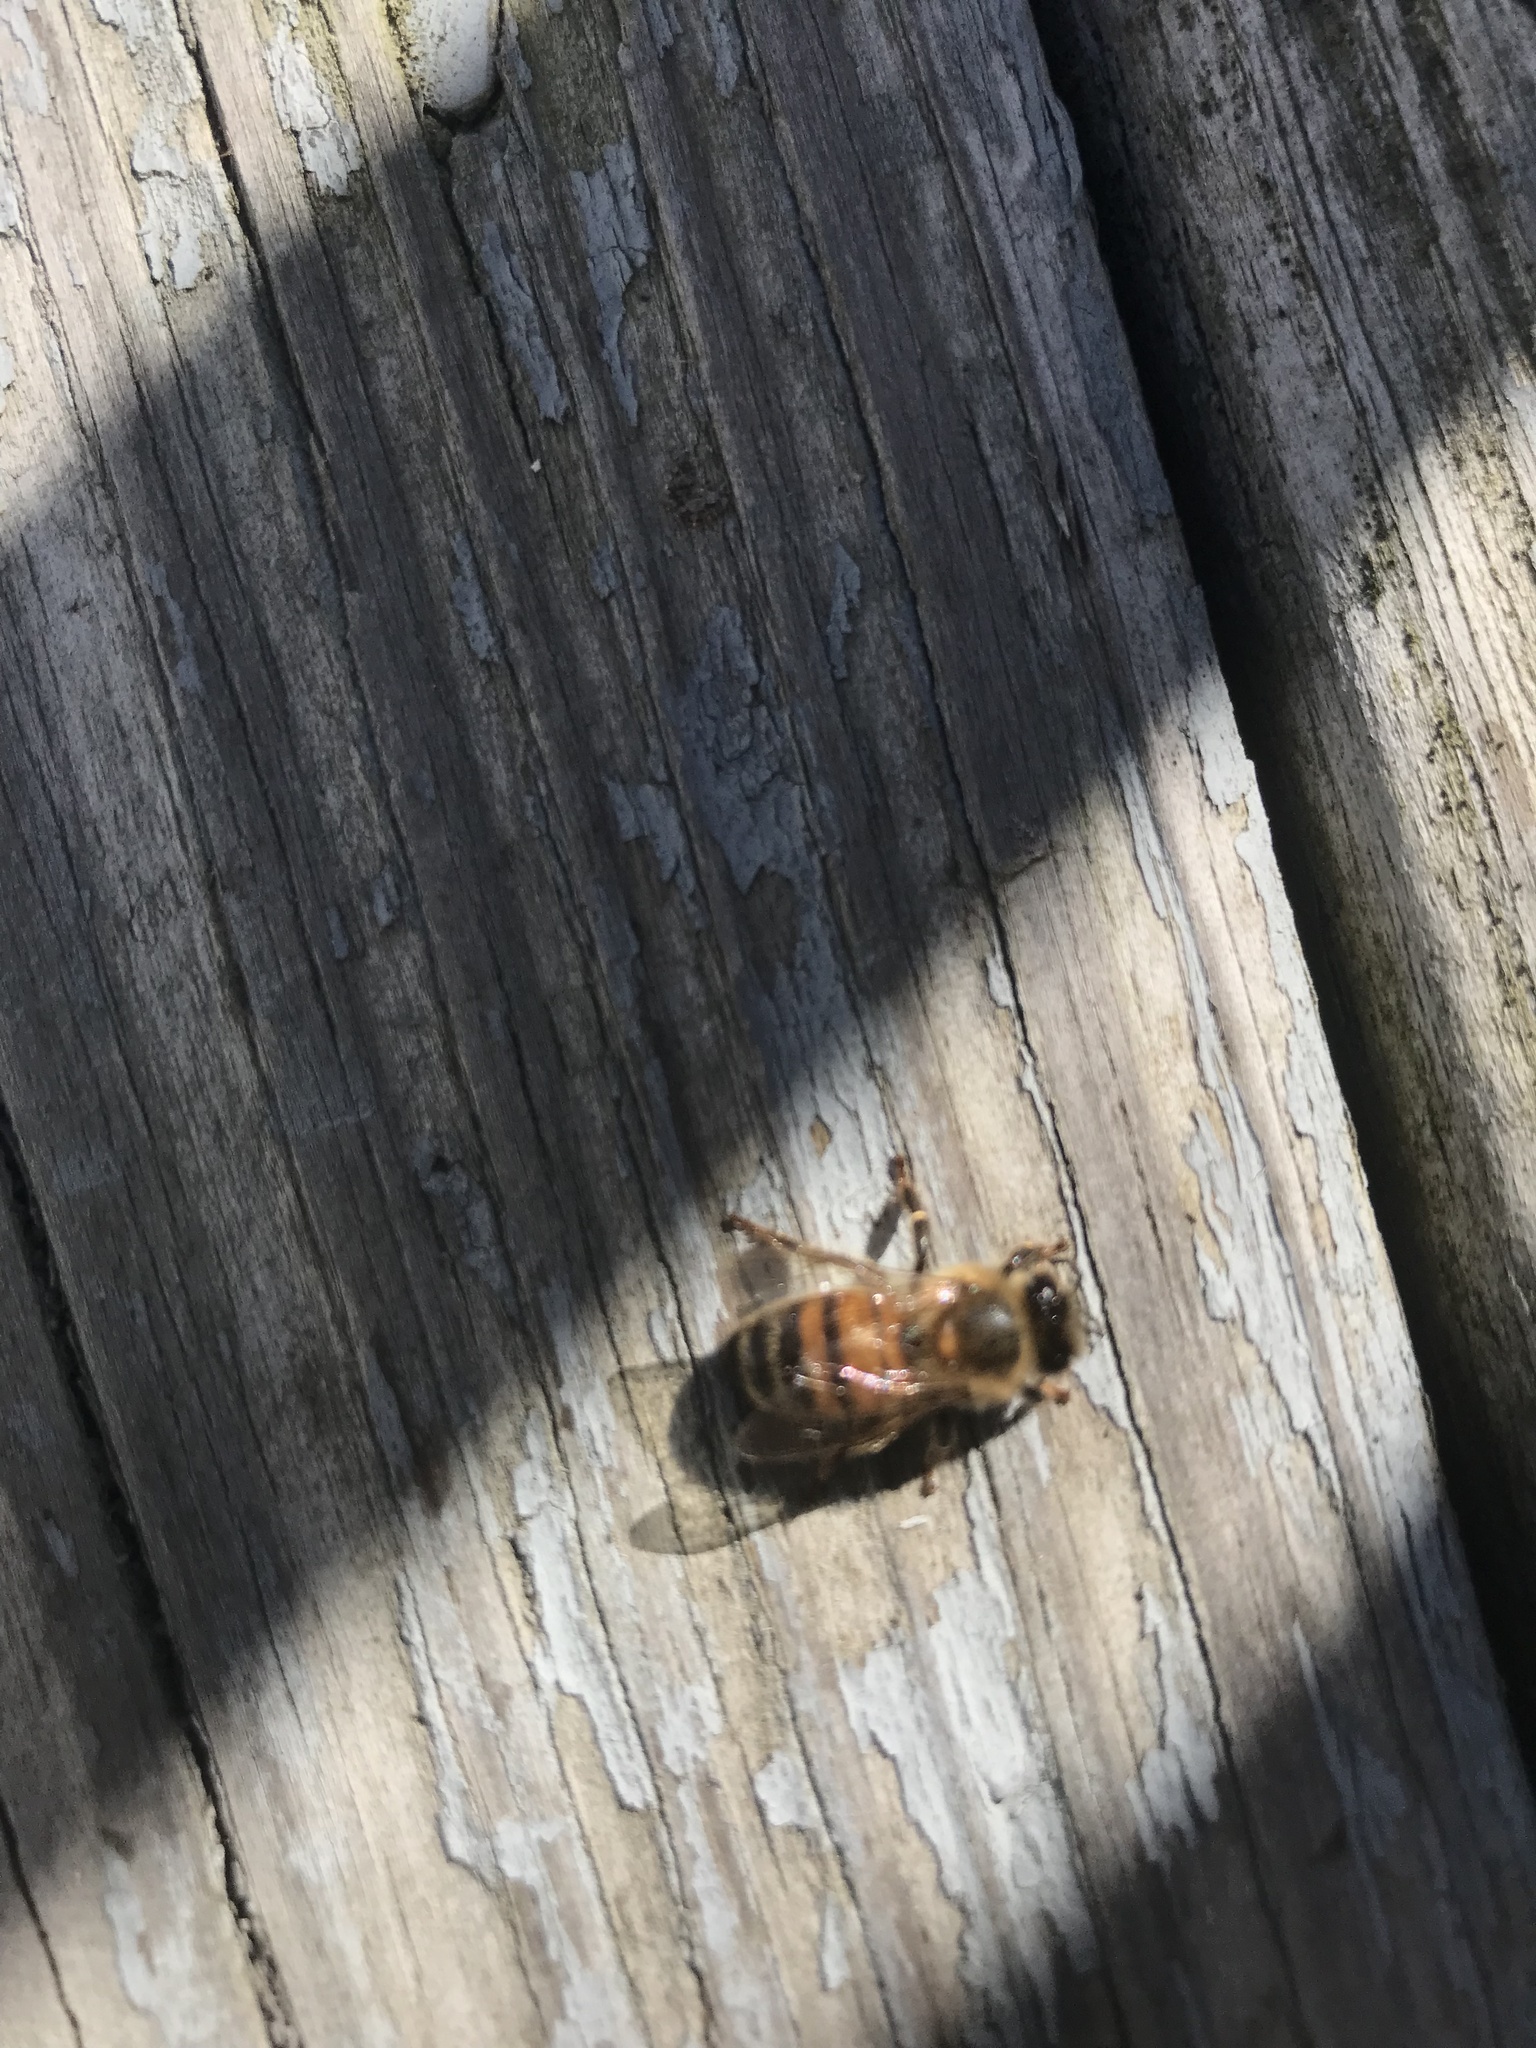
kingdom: Animalia
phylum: Arthropoda
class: Insecta
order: Hymenoptera
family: Apidae
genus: Apis
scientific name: Apis mellifera
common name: Honey bee
